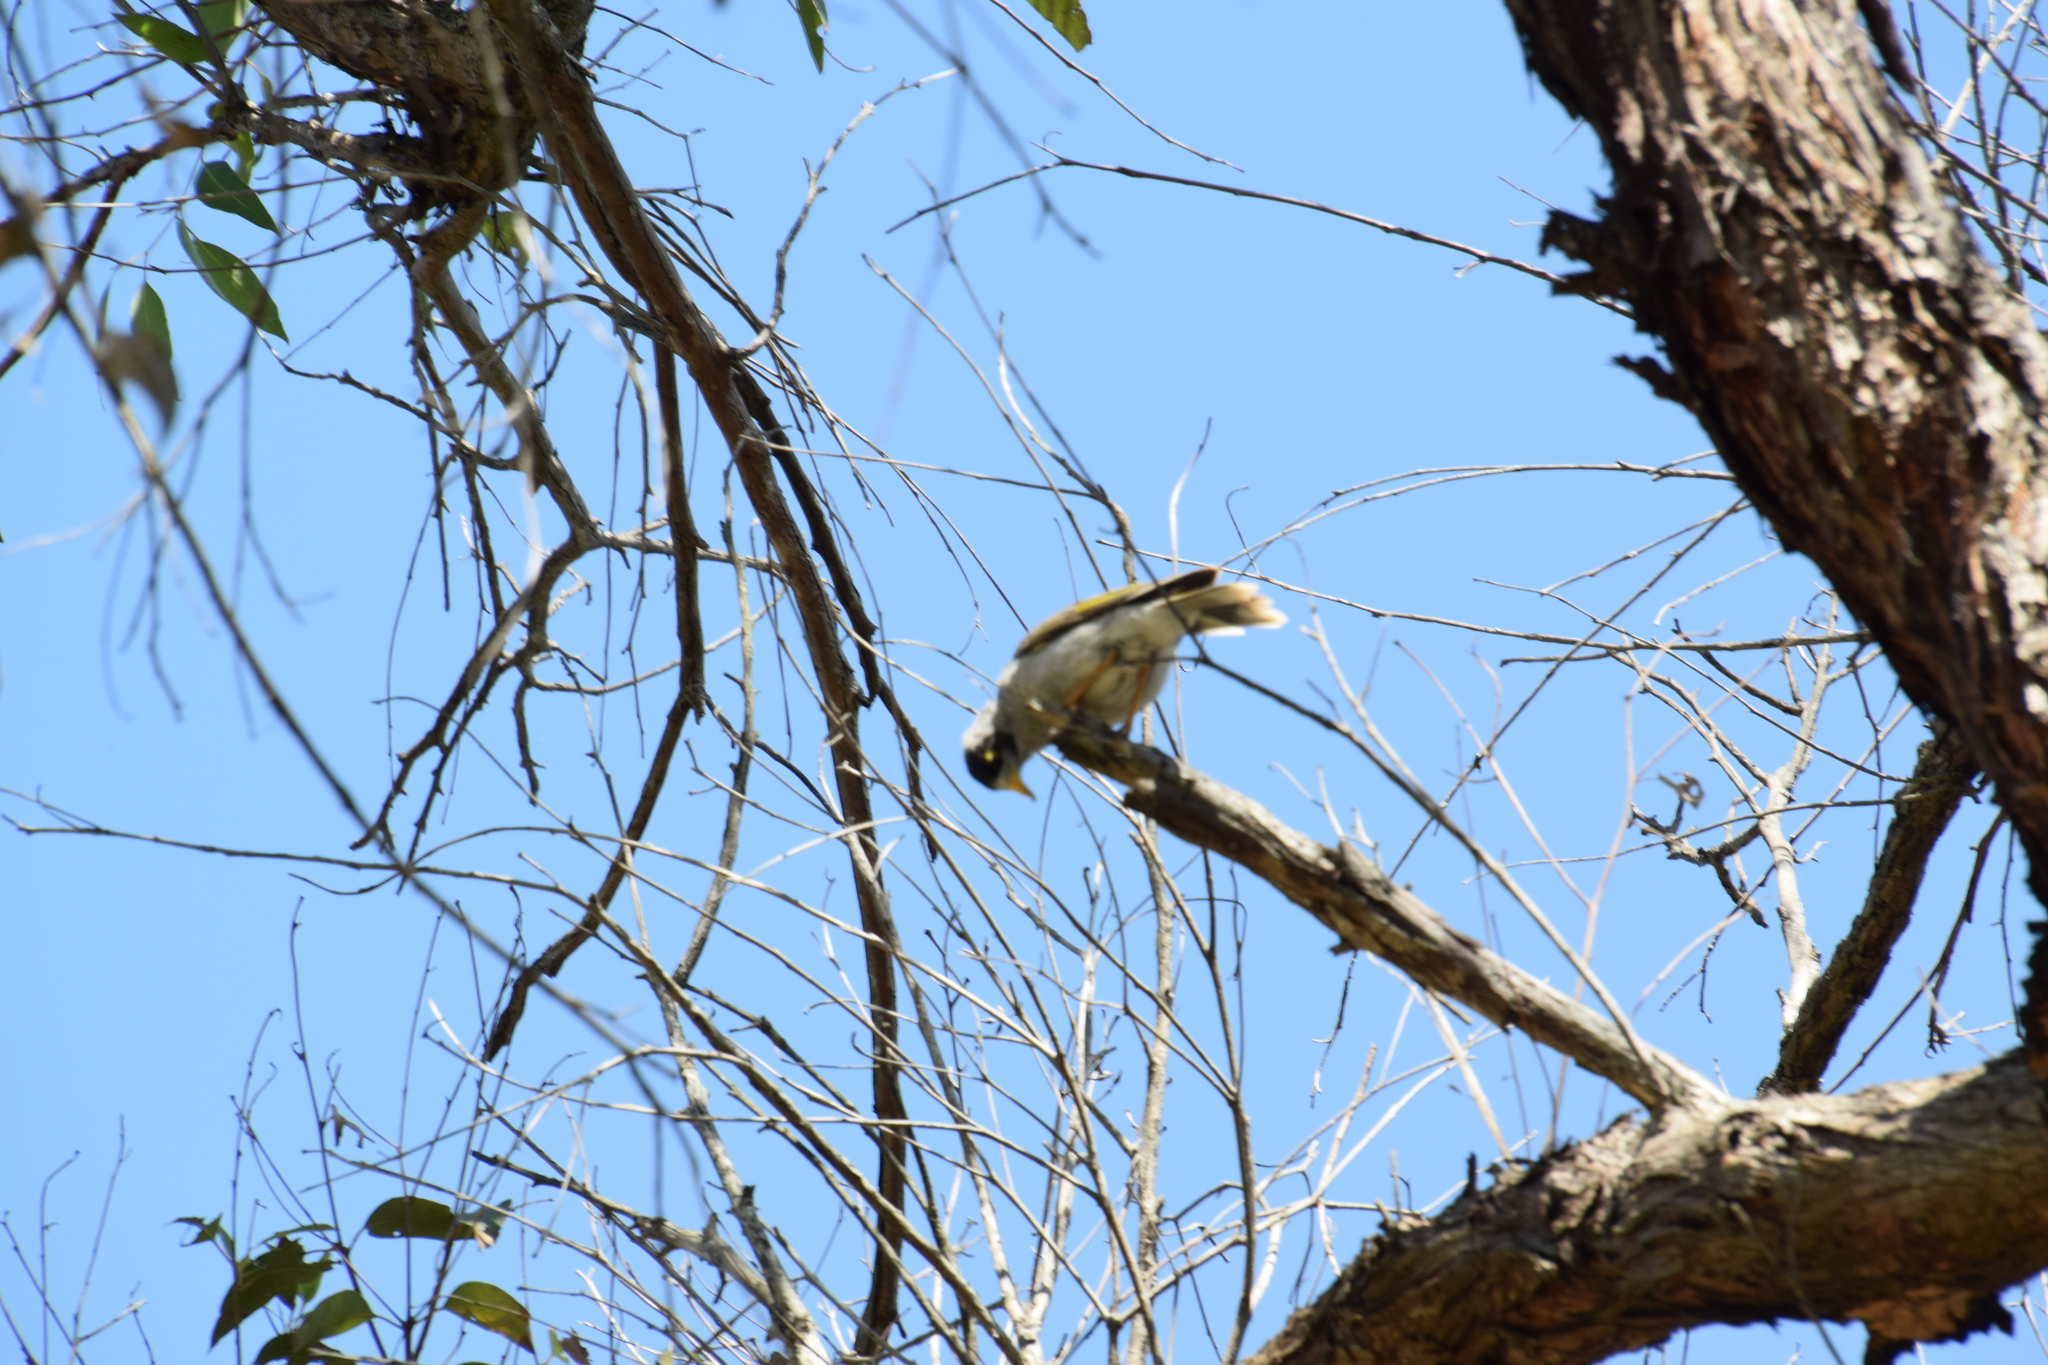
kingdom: Animalia
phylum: Chordata
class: Aves
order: Passeriformes
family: Meliphagidae
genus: Manorina
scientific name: Manorina melanocephala
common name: Noisy miner
